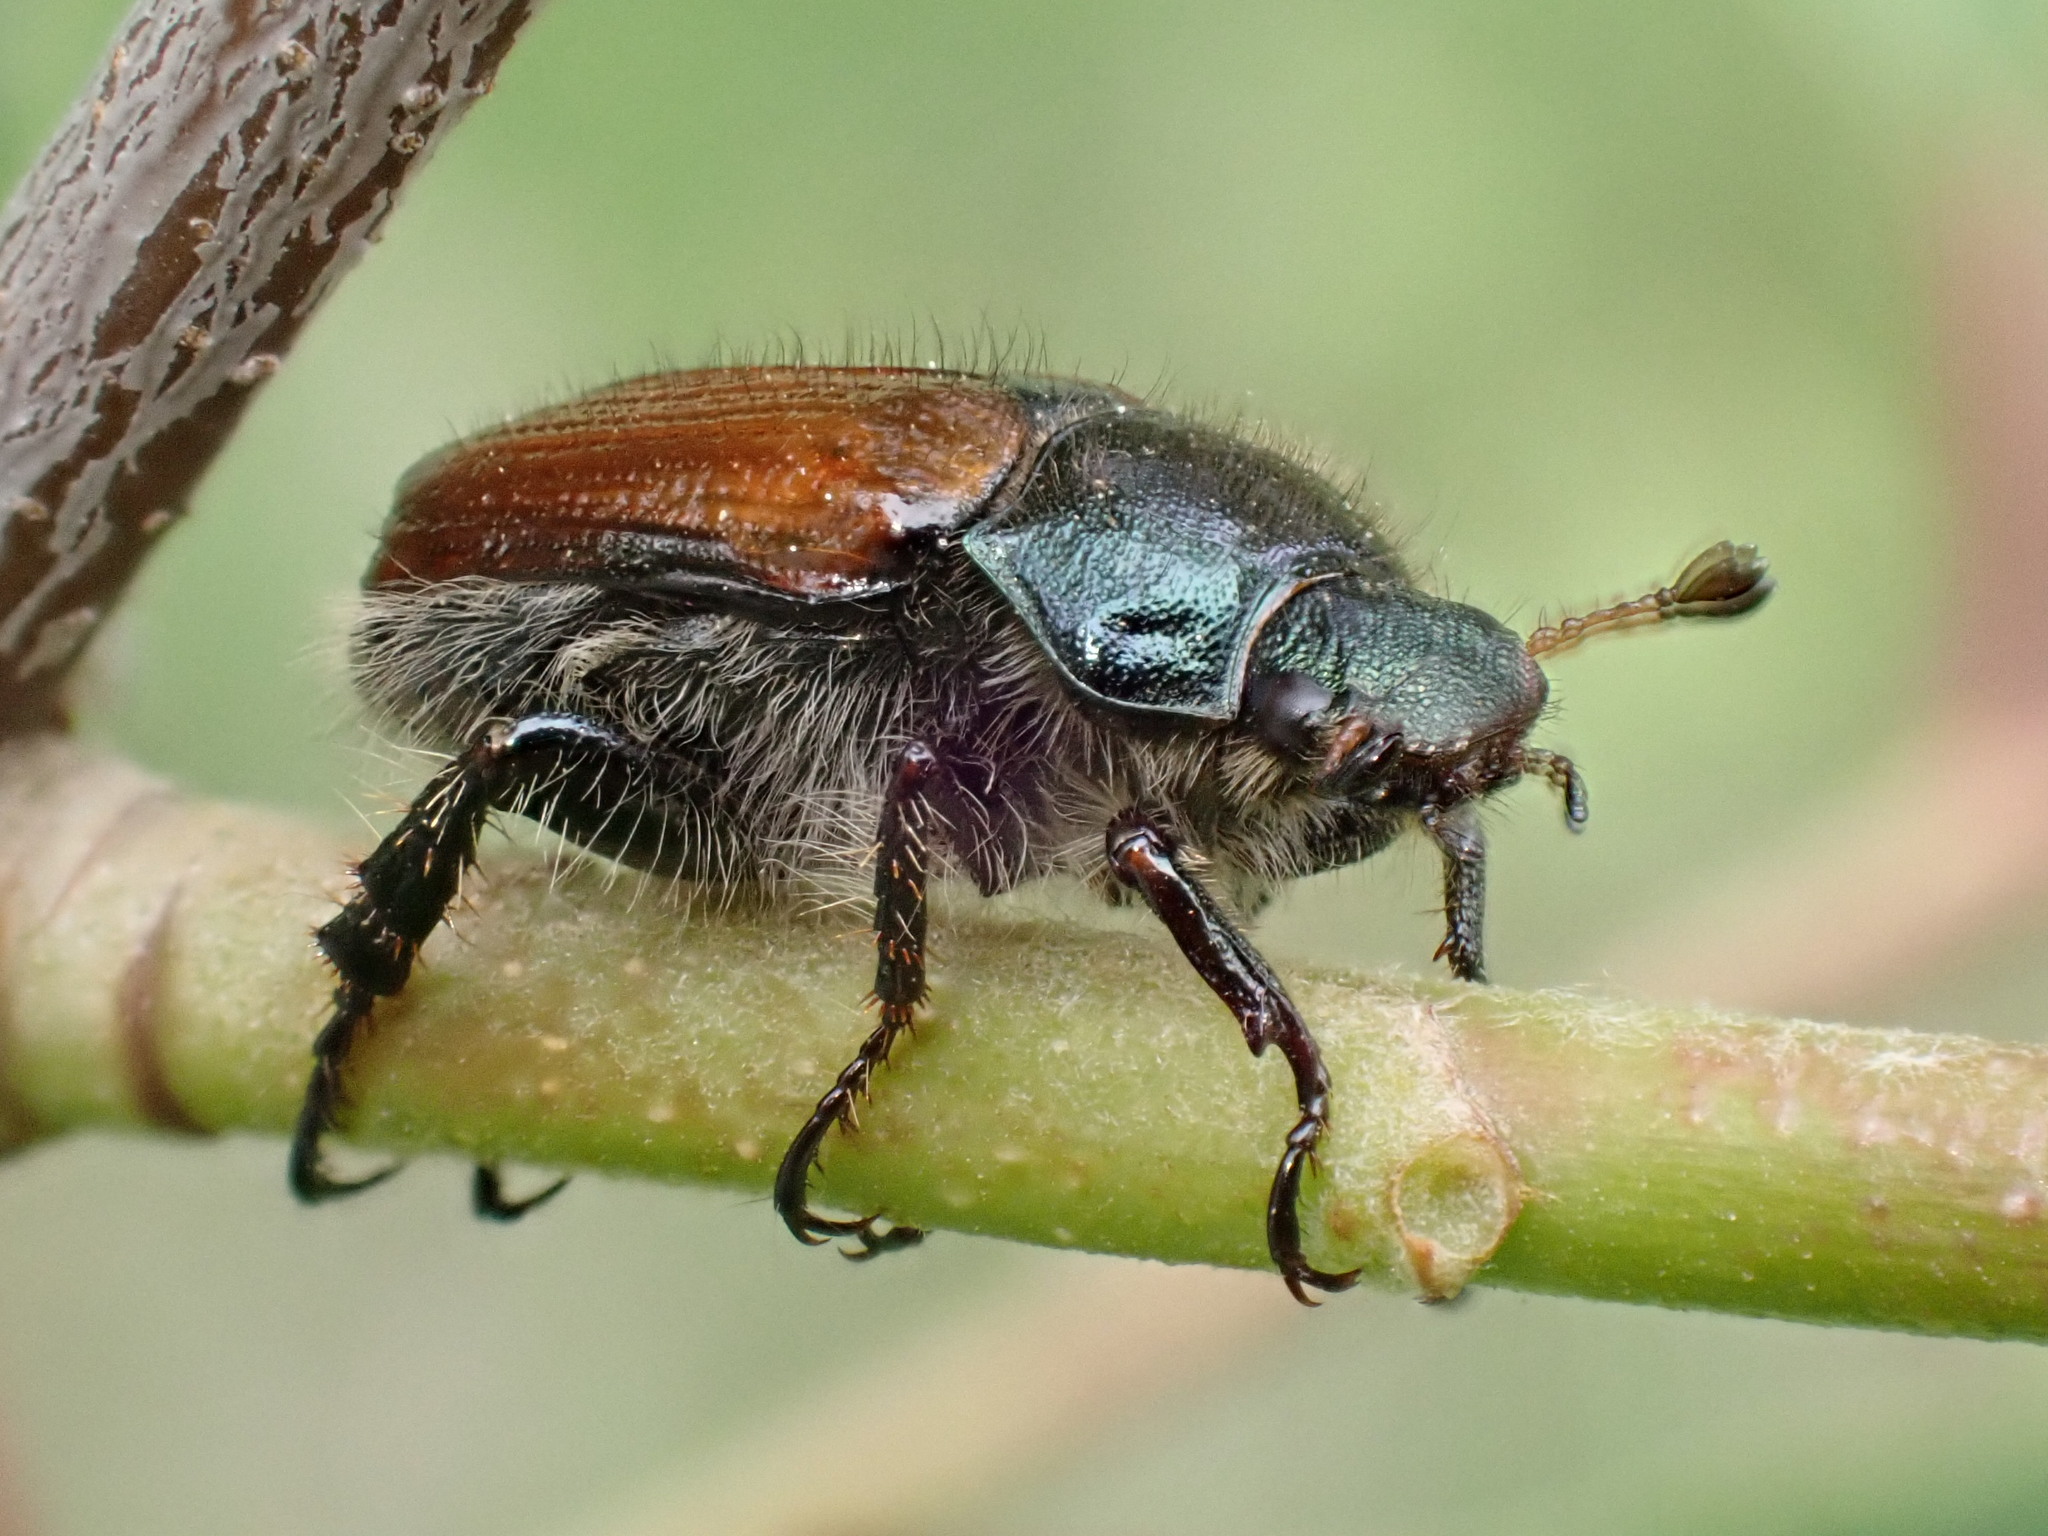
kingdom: Animalia
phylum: Arthropoda
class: Insecta
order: Coleoptera
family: Scarabaeidae
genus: Phyllopertha
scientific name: Phyllopertha horticola
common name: Garden chafer
